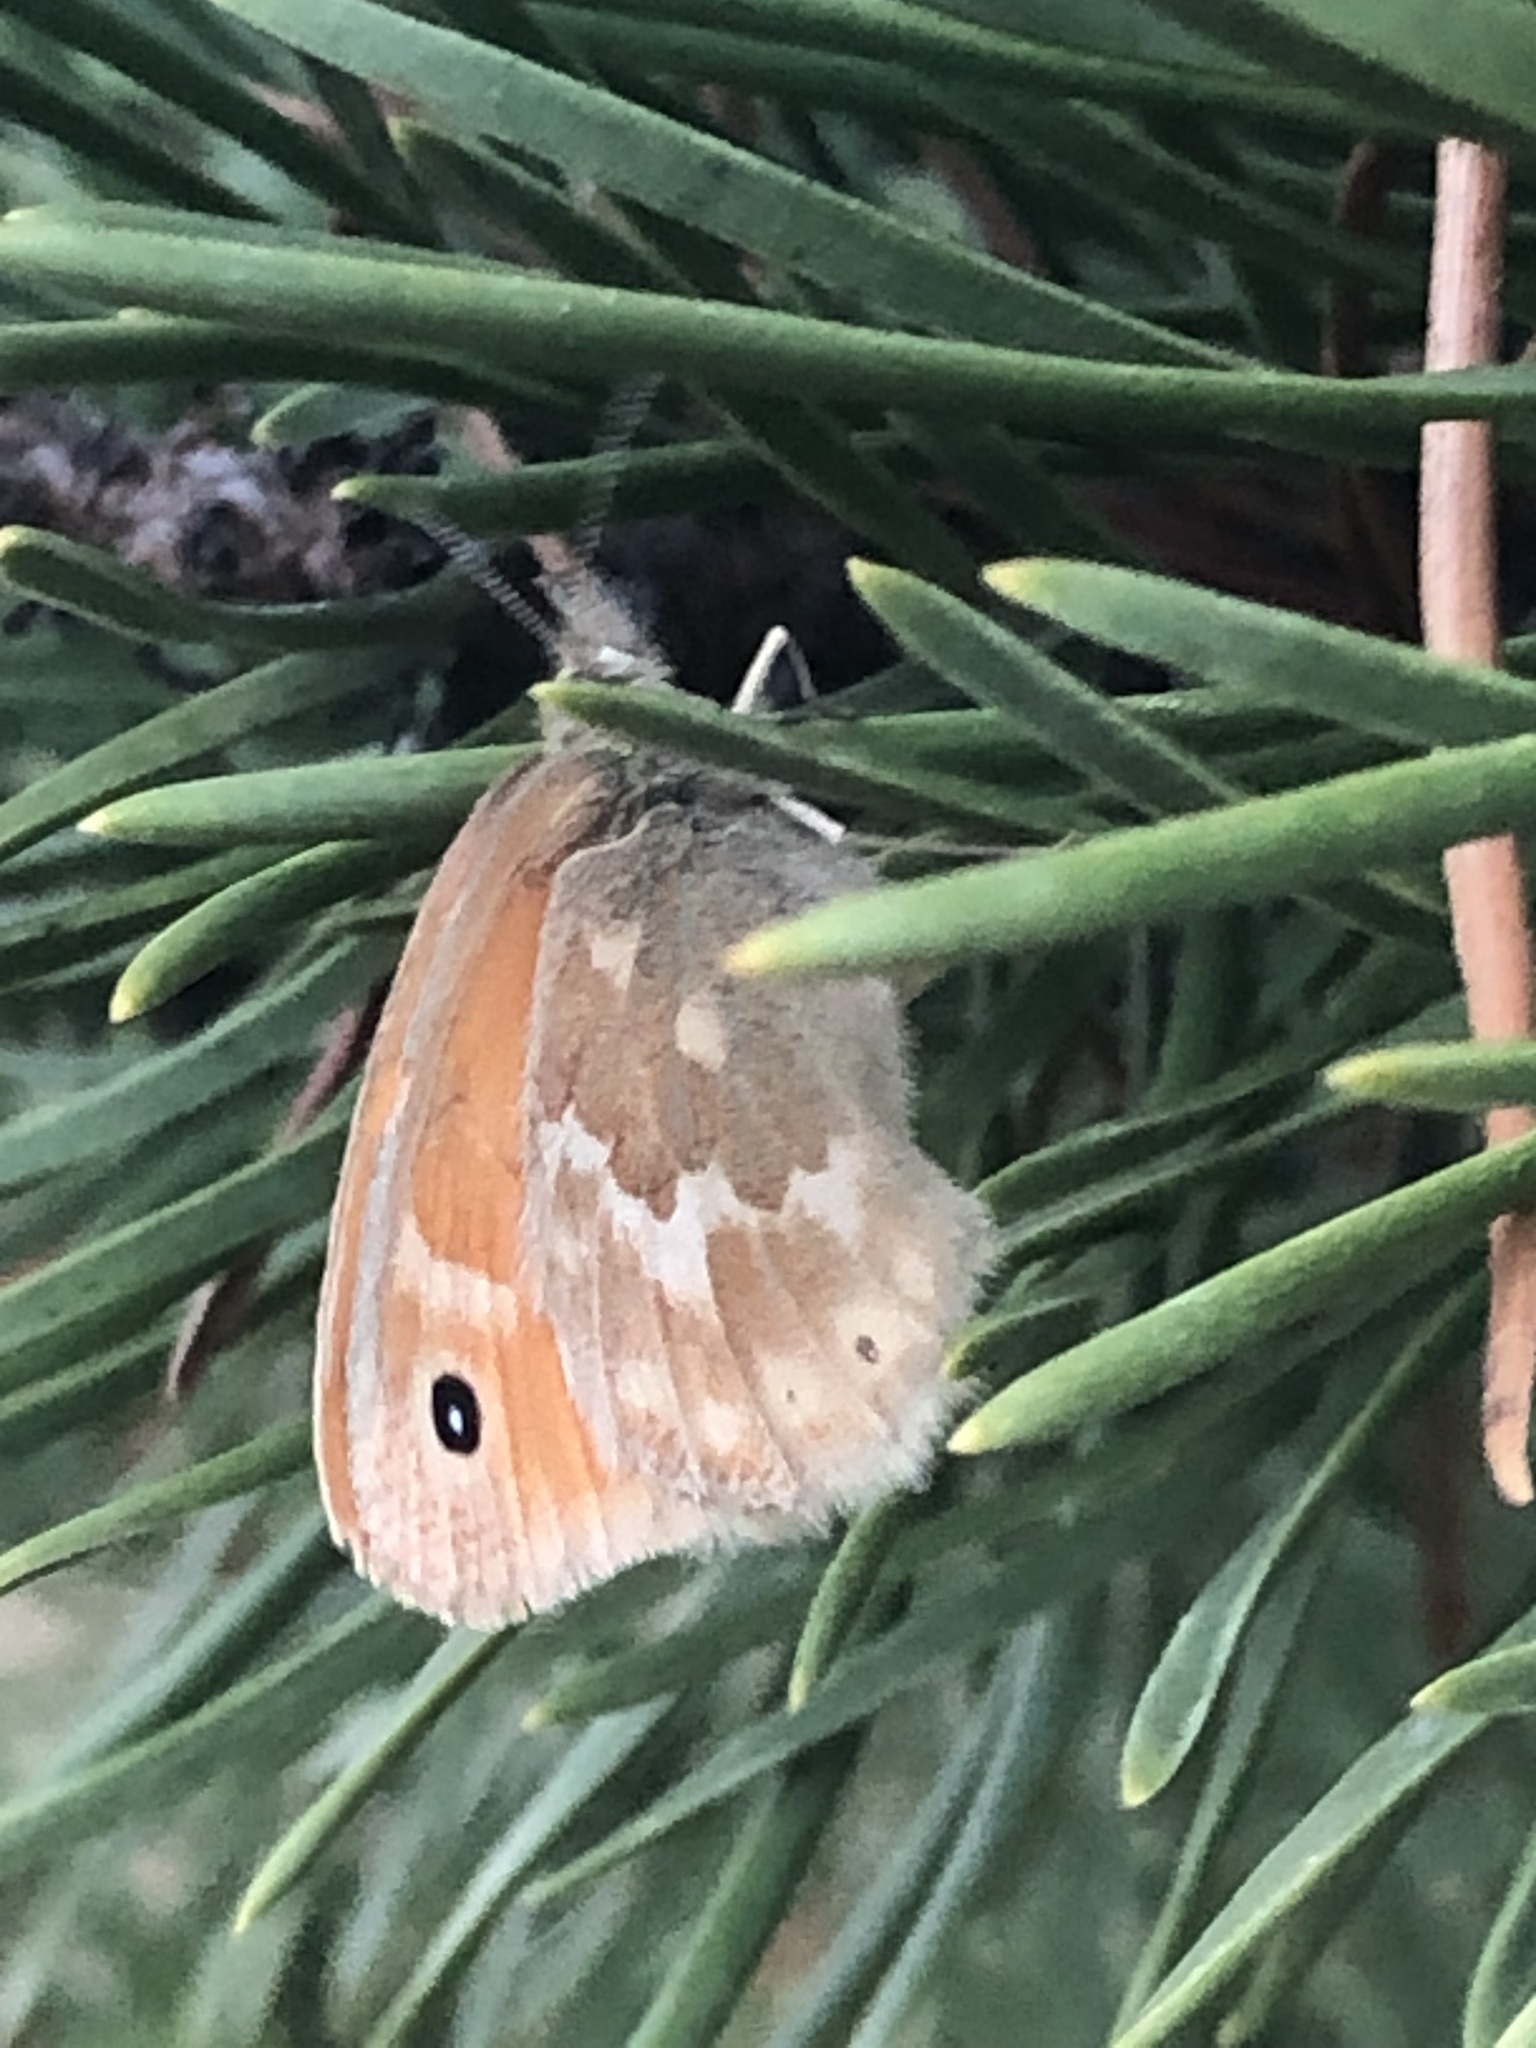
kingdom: Animalia
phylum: Arthropoda
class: Insecta
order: Lepidoptera
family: Nymphalidae
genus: Coenonympha
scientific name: Coenonympha california
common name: Common ringlet
